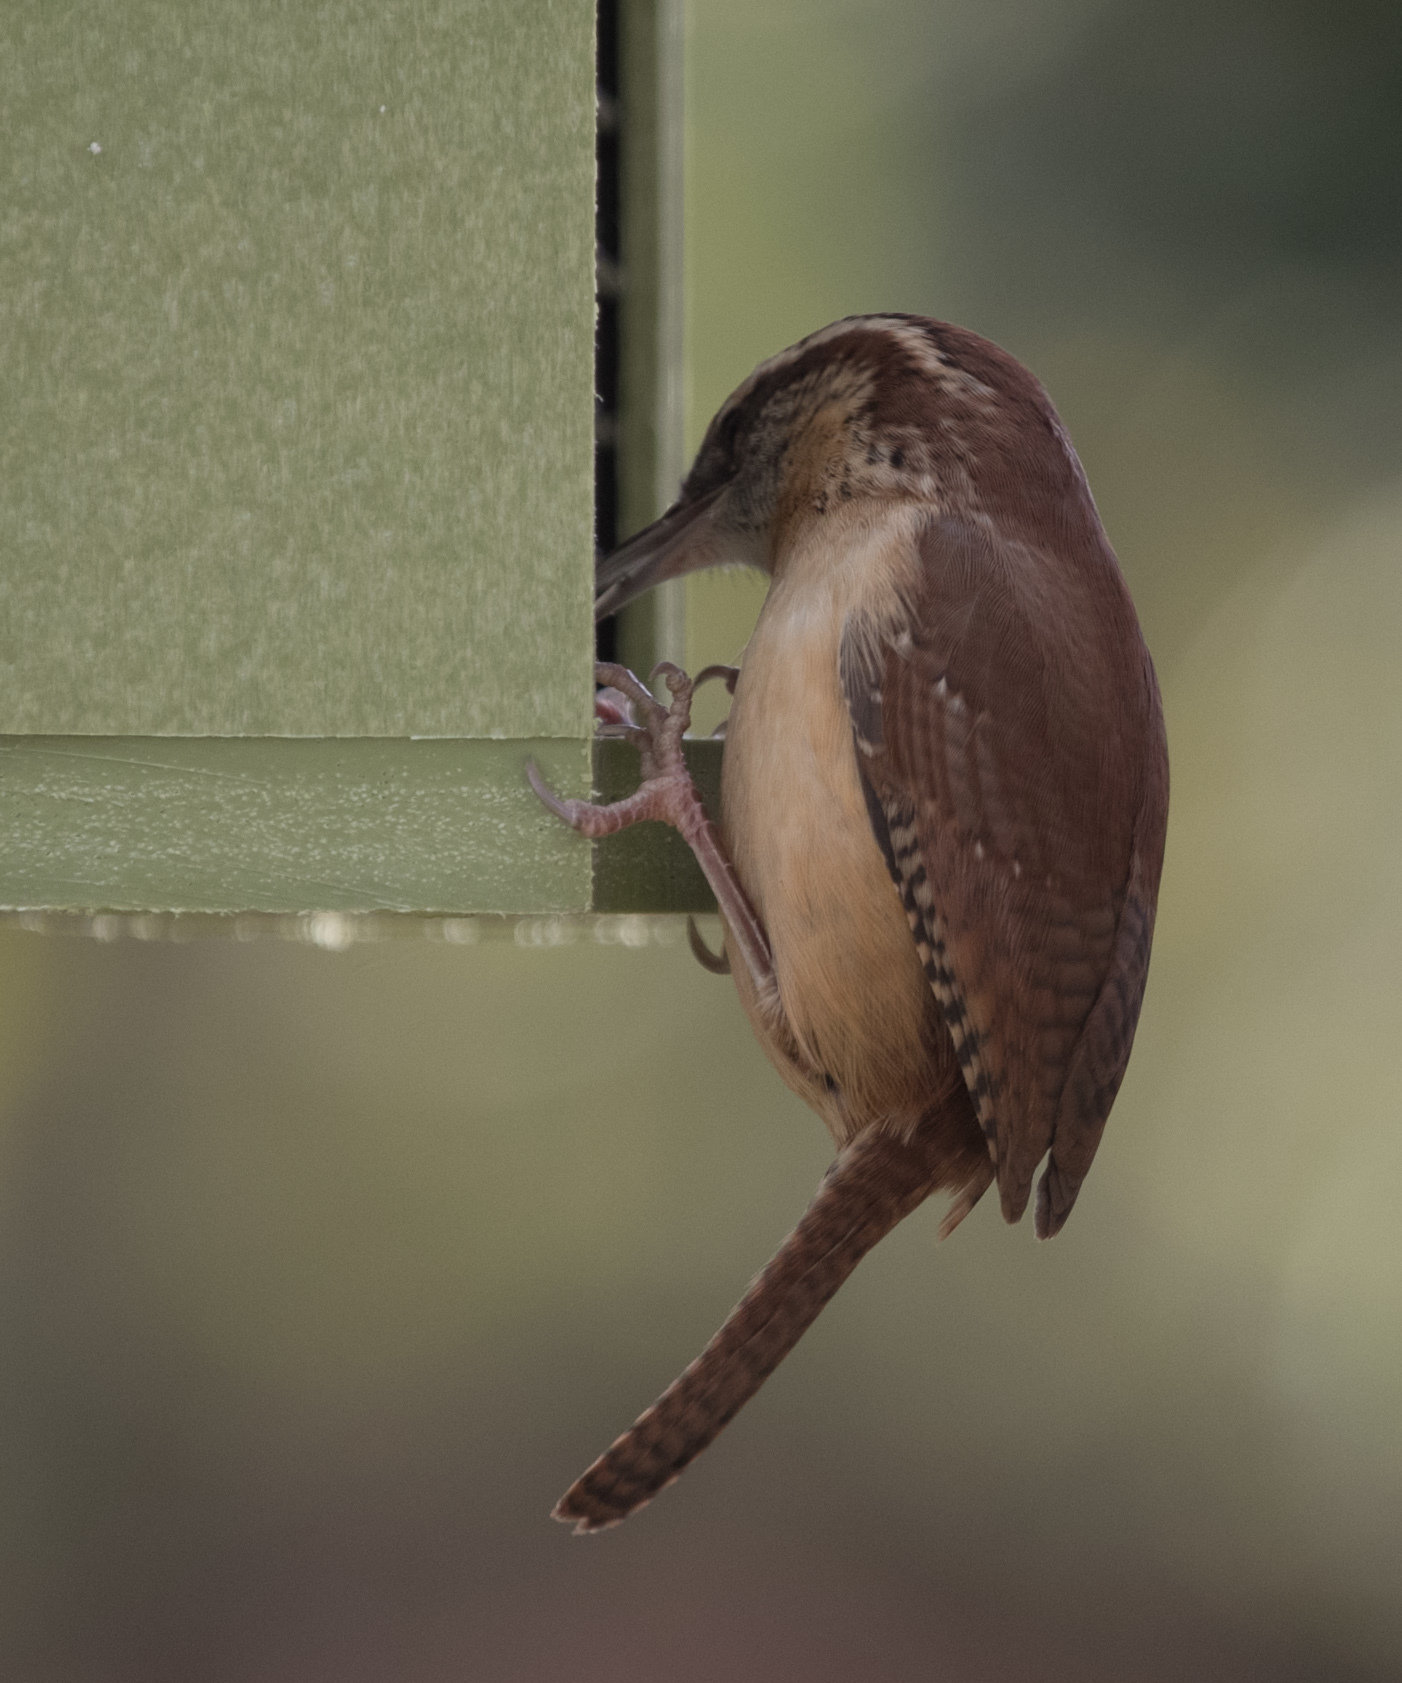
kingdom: Animalia
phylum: Chordata
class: Aves
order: Passeriformes
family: Troglodytidae
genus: Thryothorus
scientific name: Thryothorus ludovicianus
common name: Carolina wren
